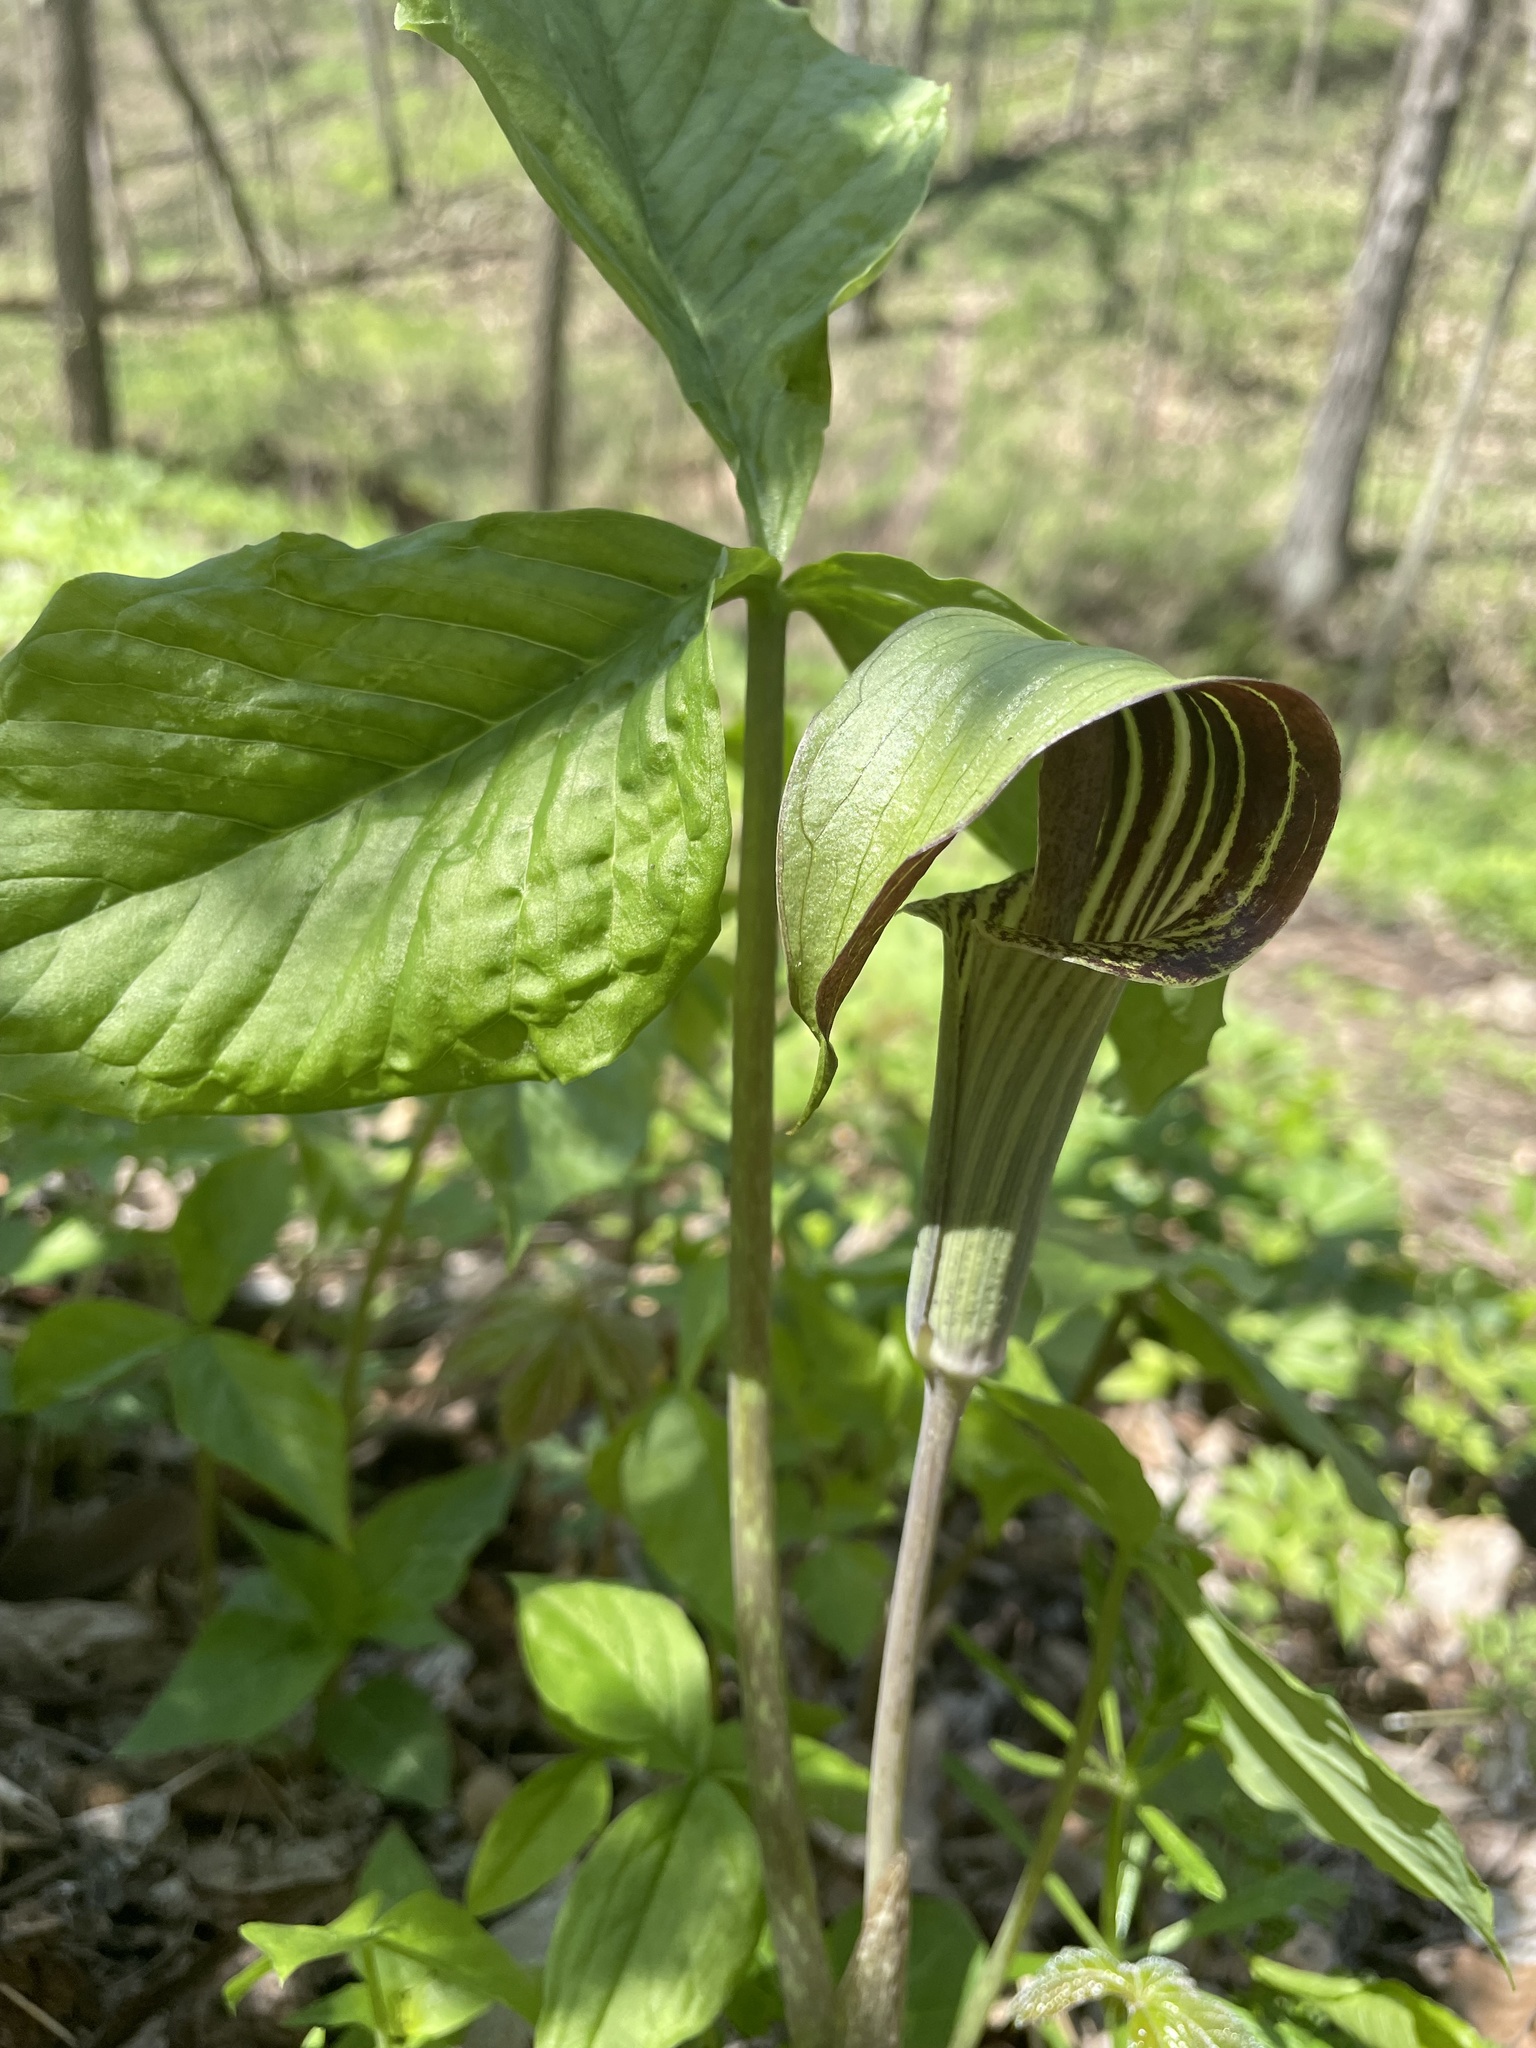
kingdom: Plantae
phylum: Tracheophyta
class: Liliopsida
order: Alismatales
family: Araceae
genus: Arisaema
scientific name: Arisaema triphyllum
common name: Jack-in-the-pulpit
